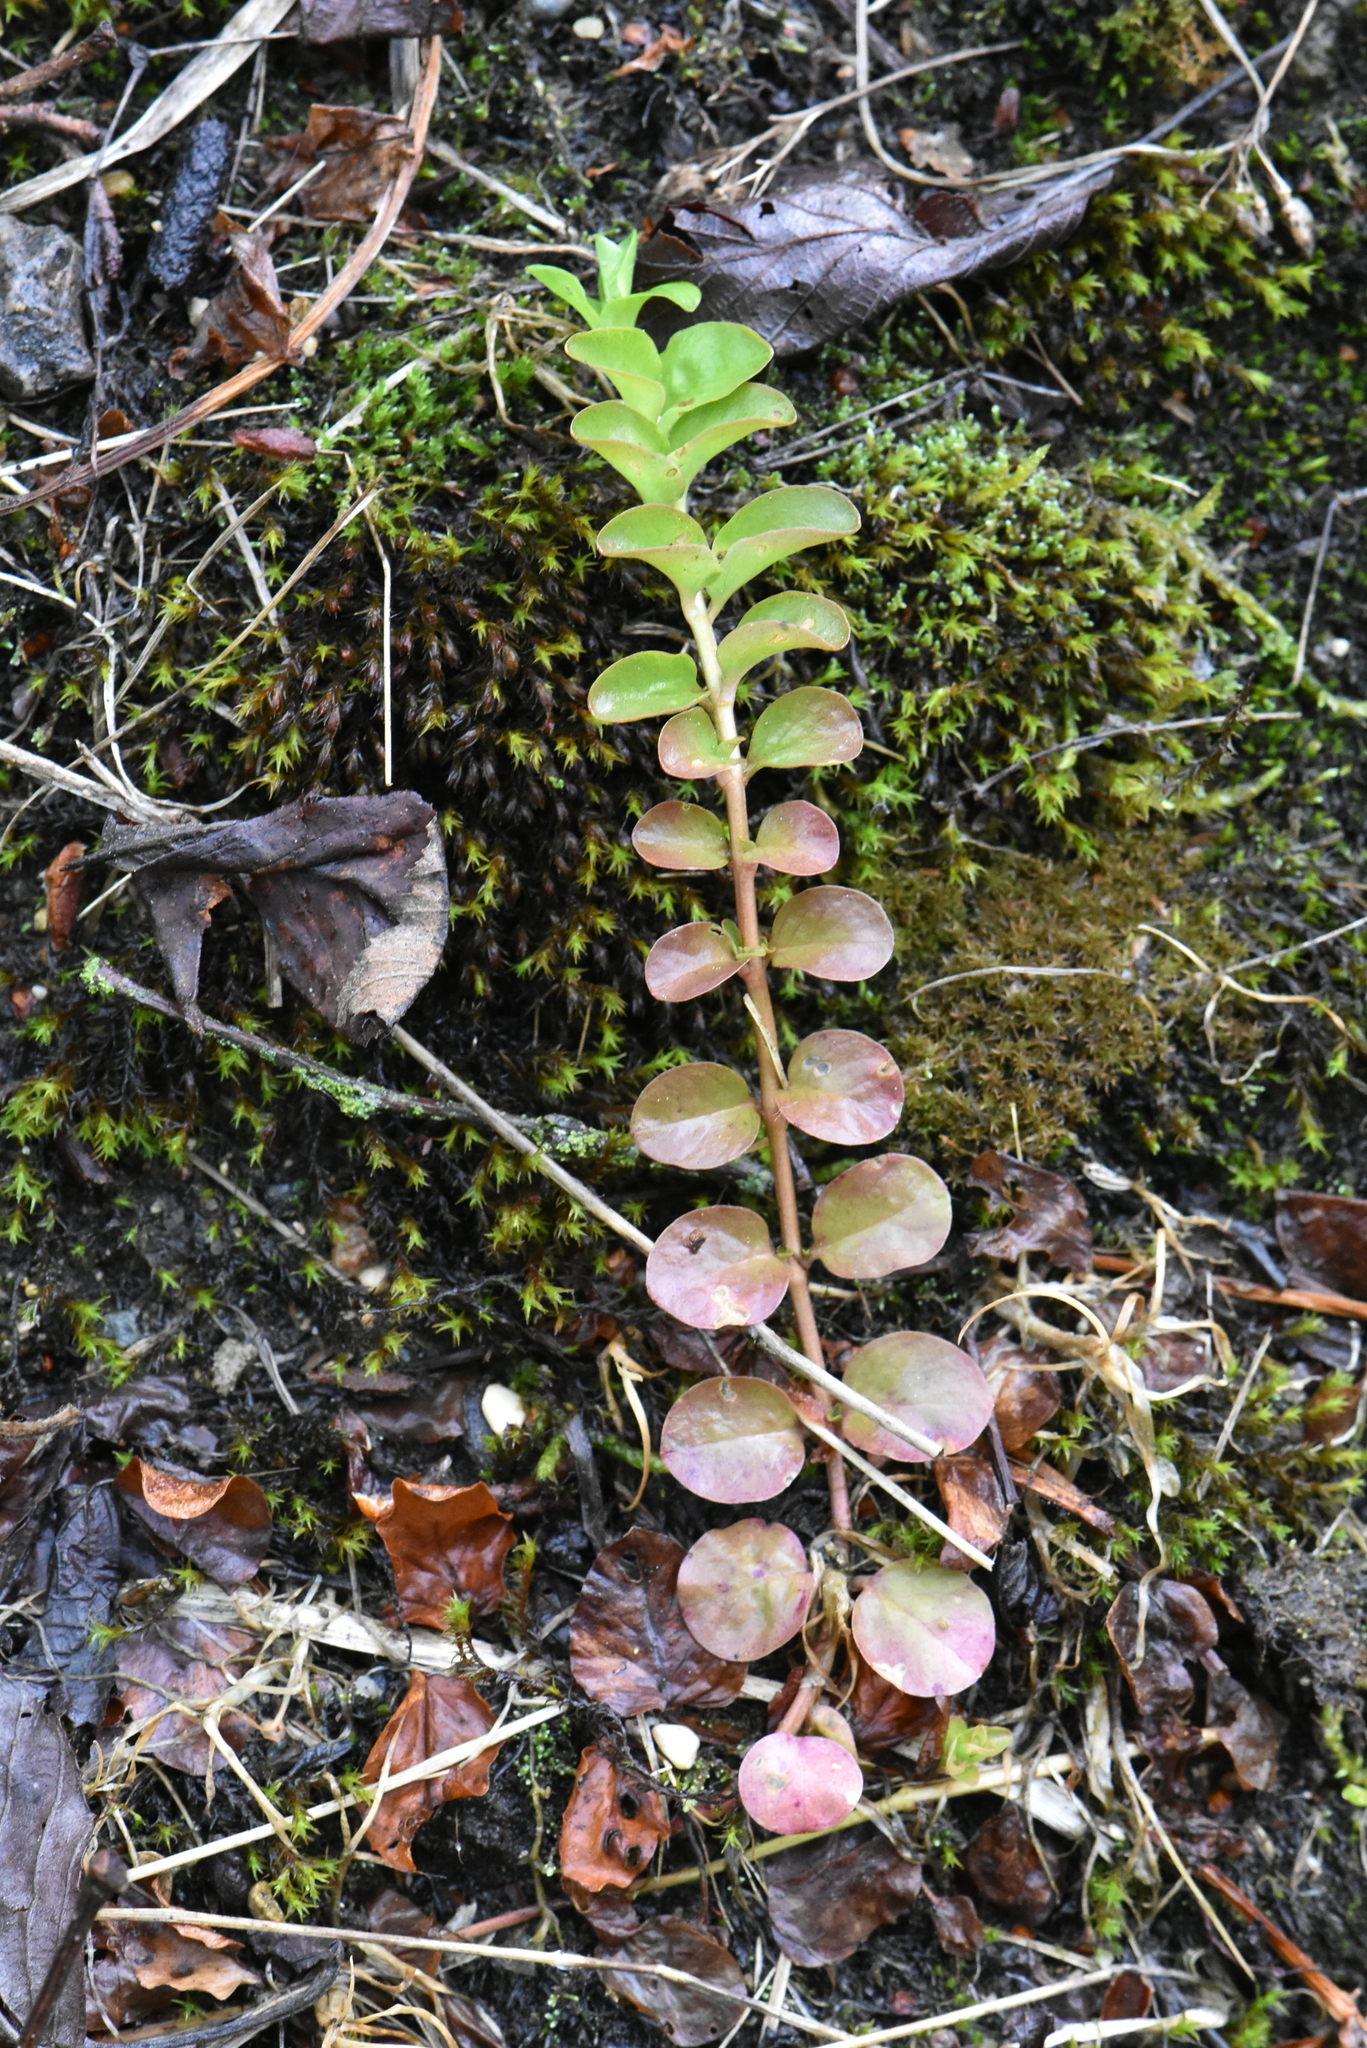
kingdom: Plantae
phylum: Tracheophyta
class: Magnoliopsida
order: Ericales
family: Primulaceae
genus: Lysimachia
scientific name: Lysimachia nummularia
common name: Moneywort
